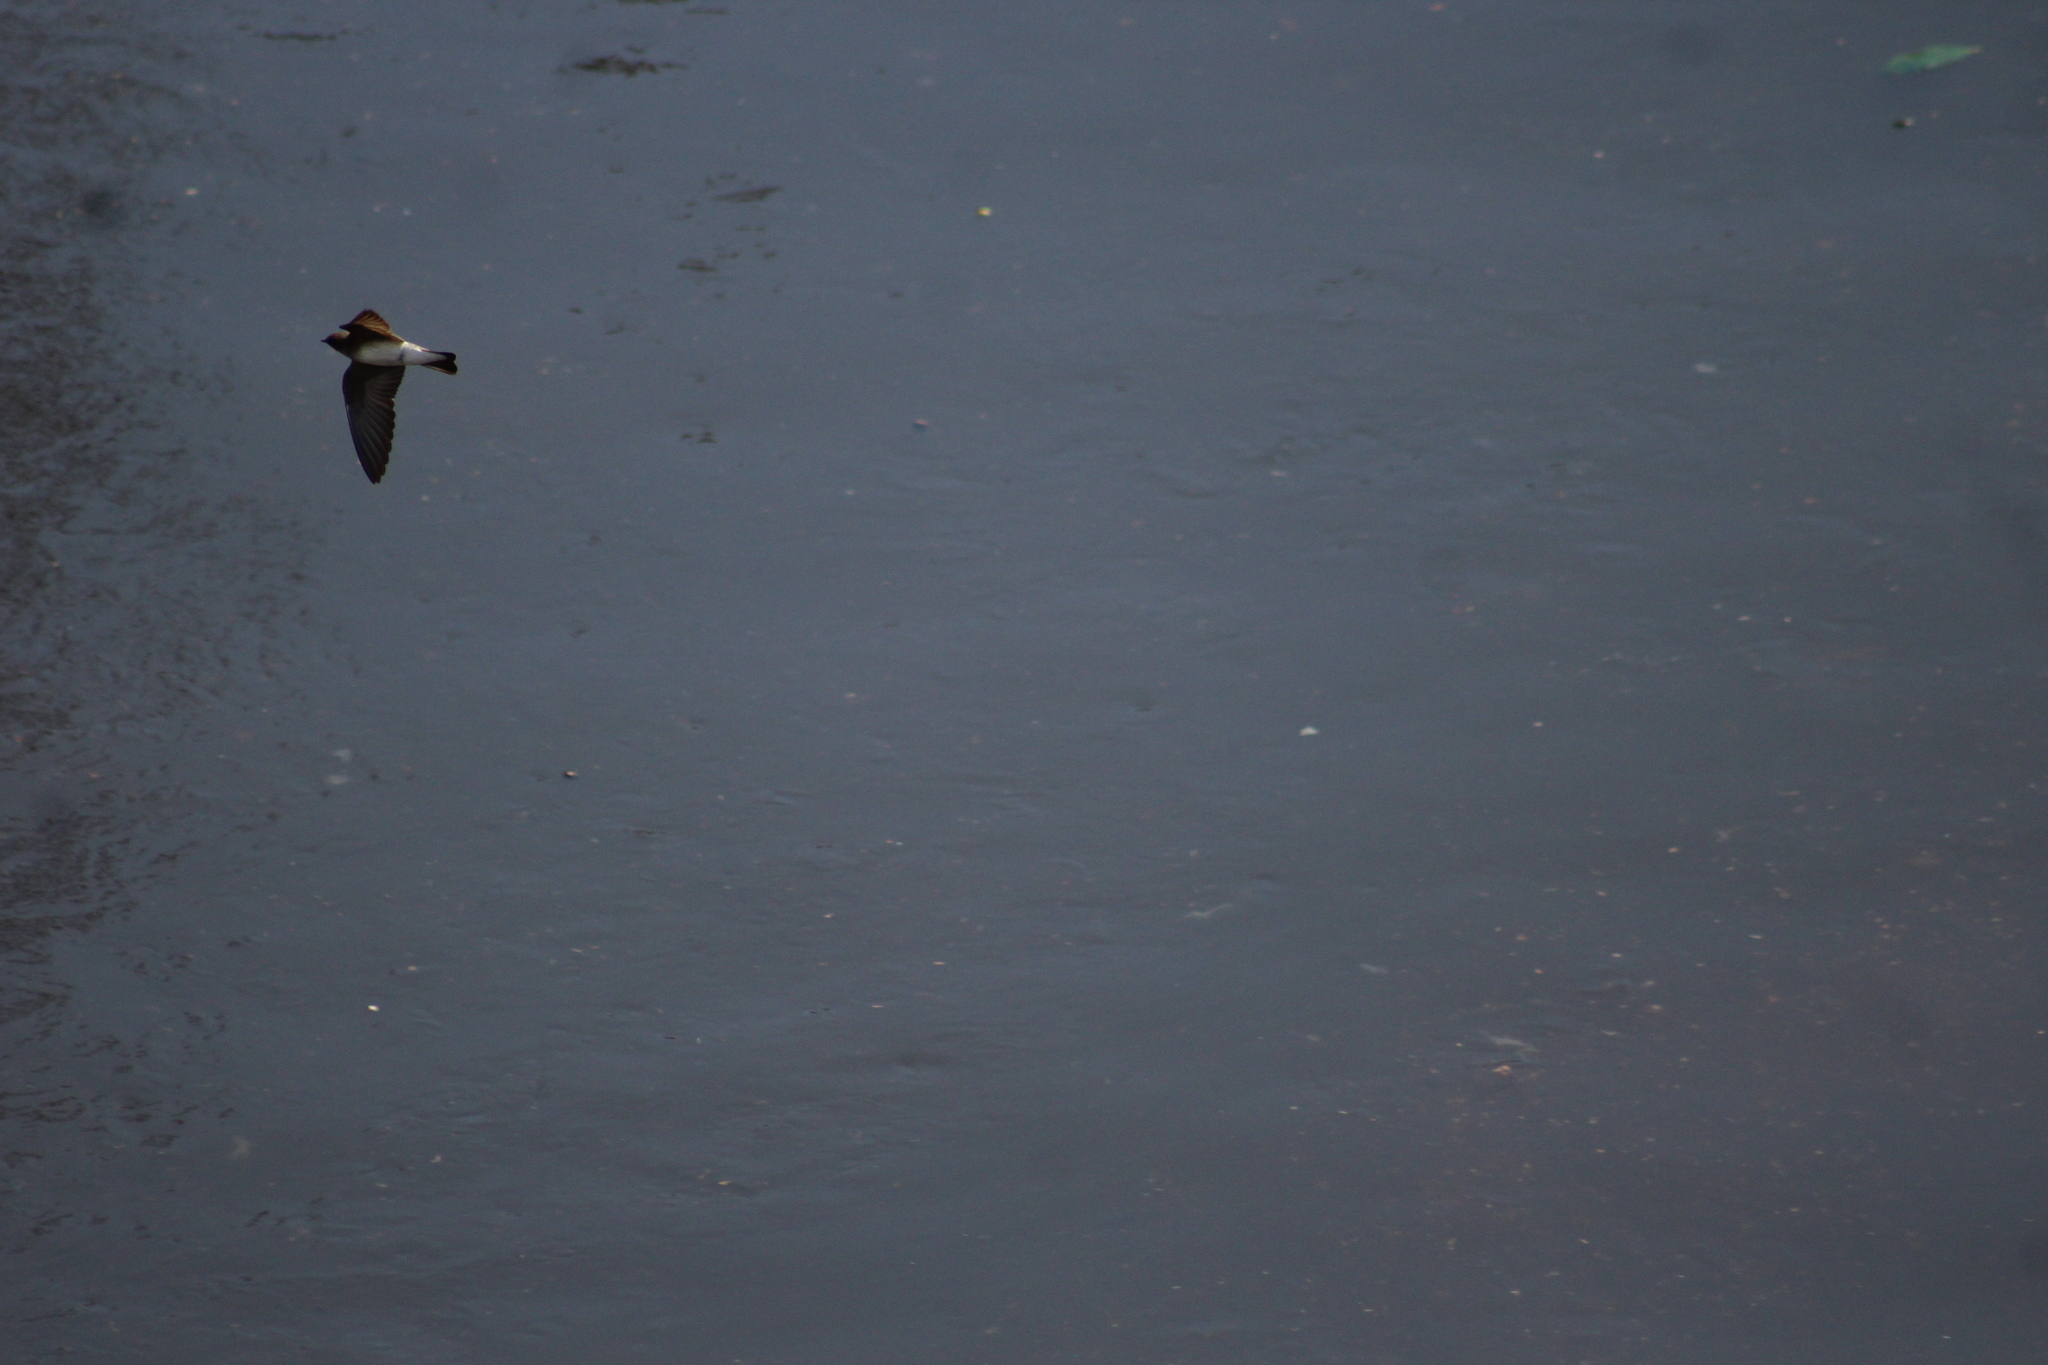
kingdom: Animalia
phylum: Chordata
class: Aves
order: Passeriformes
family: Hirundinidae
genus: Stelgidopteryx
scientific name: Stelgidopteryx serripennis
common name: Northern rough-winged swallow
